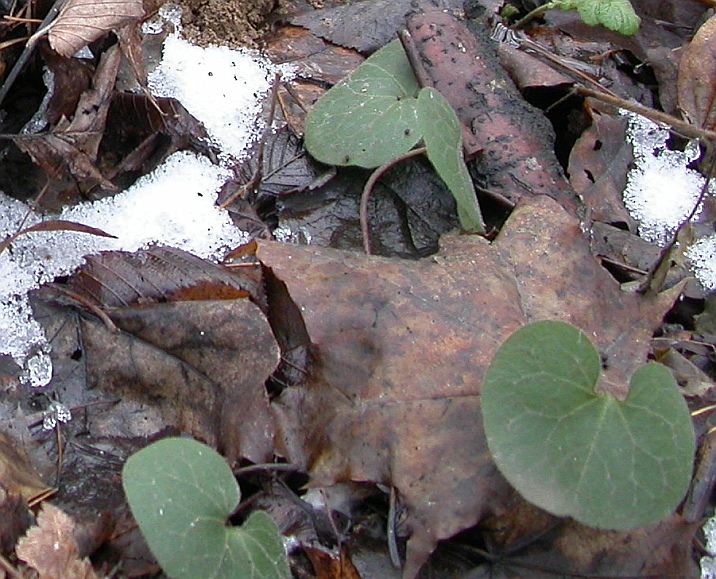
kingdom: Plantae
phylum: Tracheophyta
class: Magnoliopsida
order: Piperales
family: Aristolochiaceae
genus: Asarum
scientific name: Asarum europaeum
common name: Asarabacca
